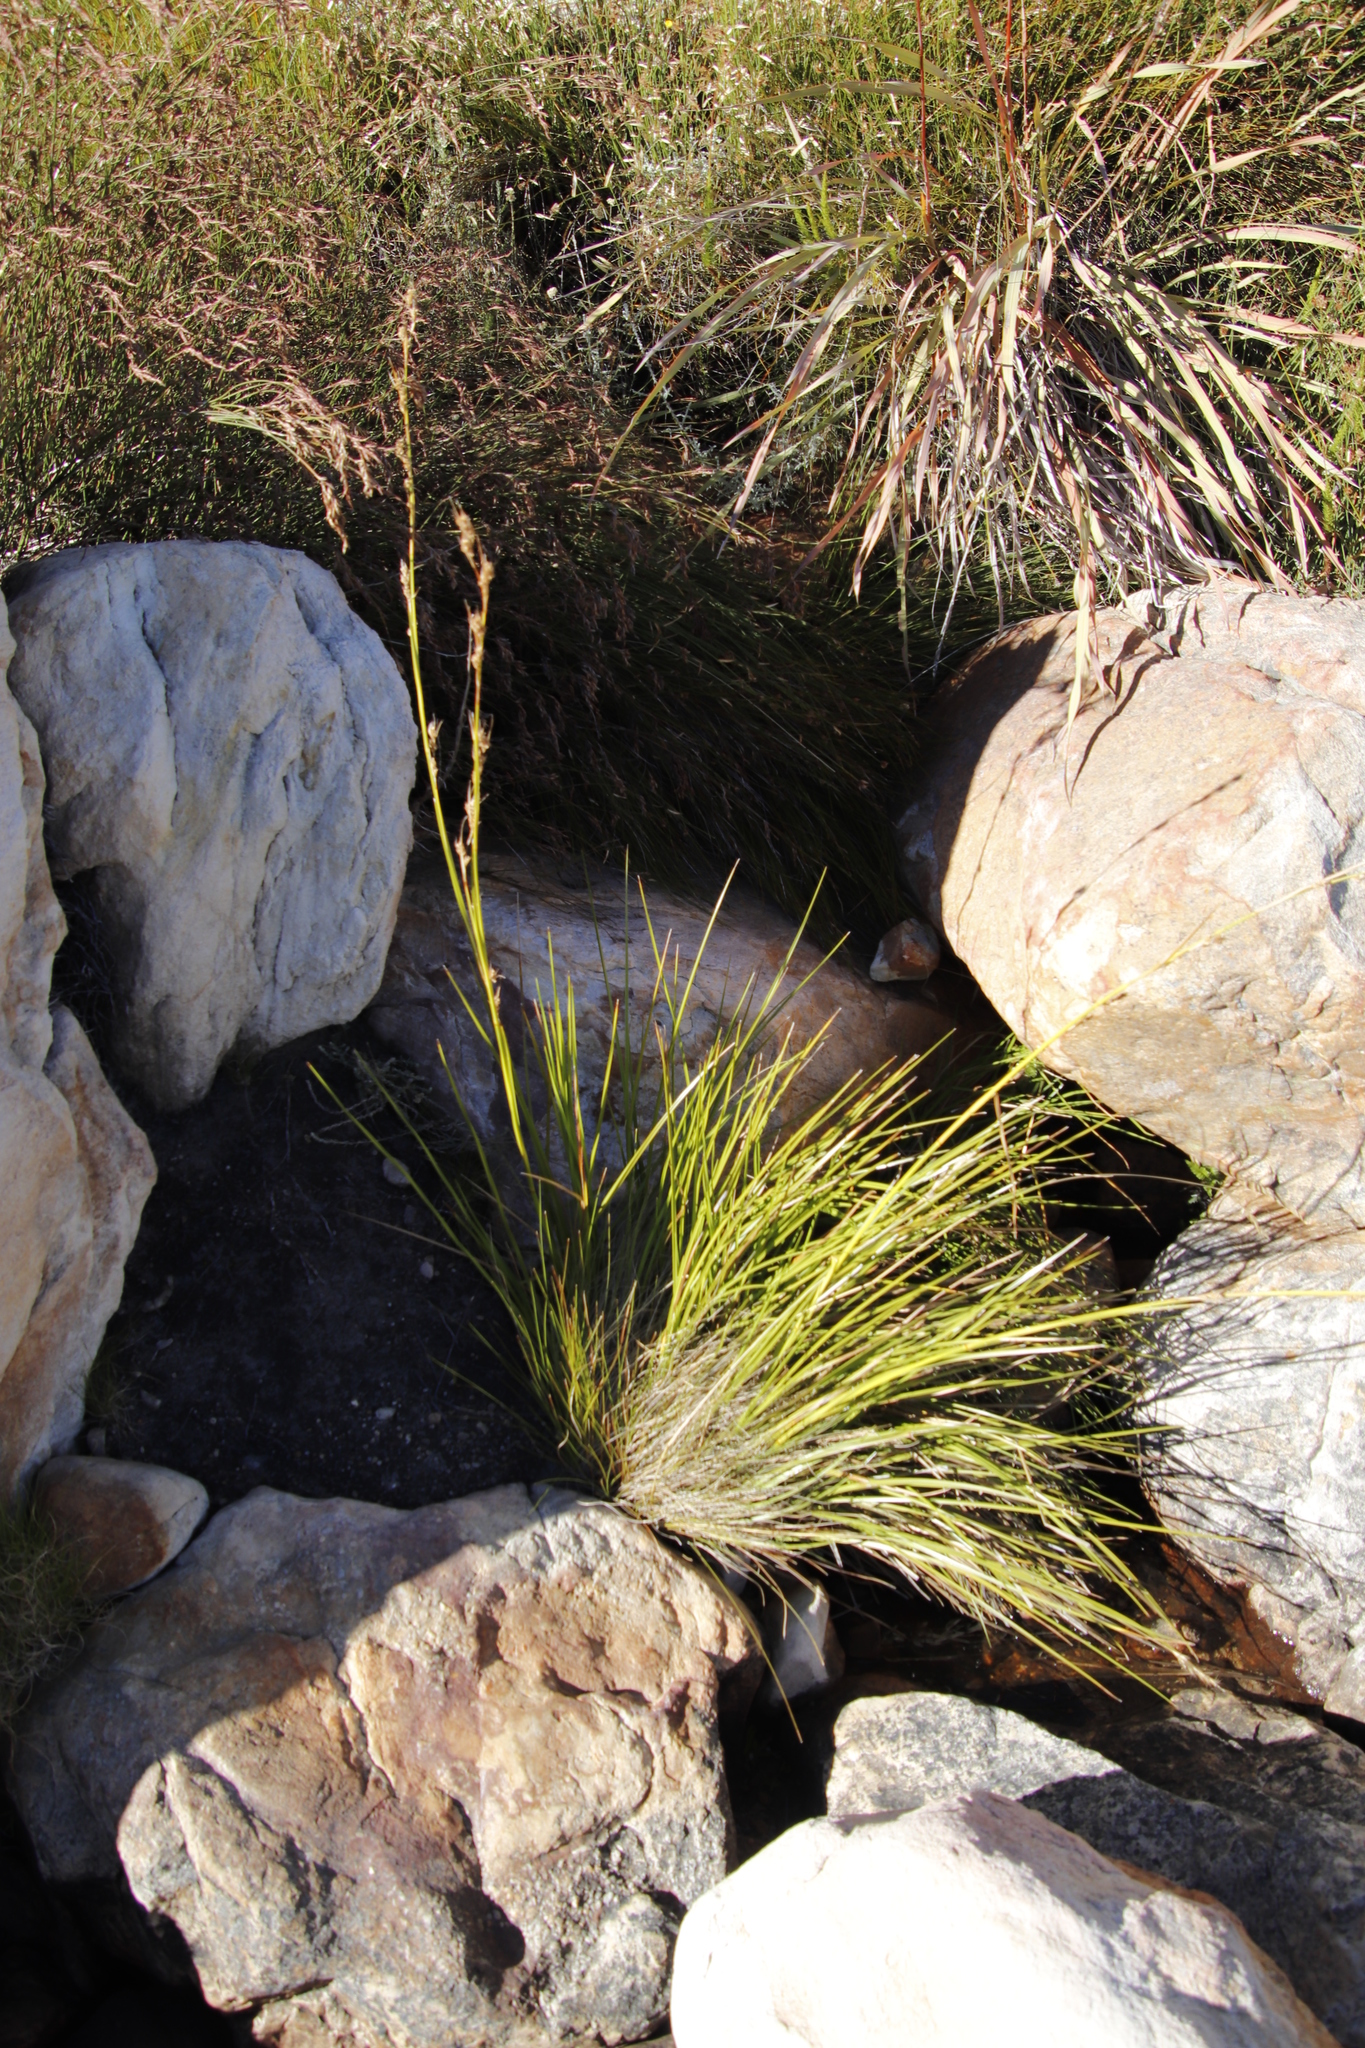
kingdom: Plantae
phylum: Tracheophyta
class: Liliopsida
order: Poales
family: Cyperaceae
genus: Carpha
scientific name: Carpha schlechteri
